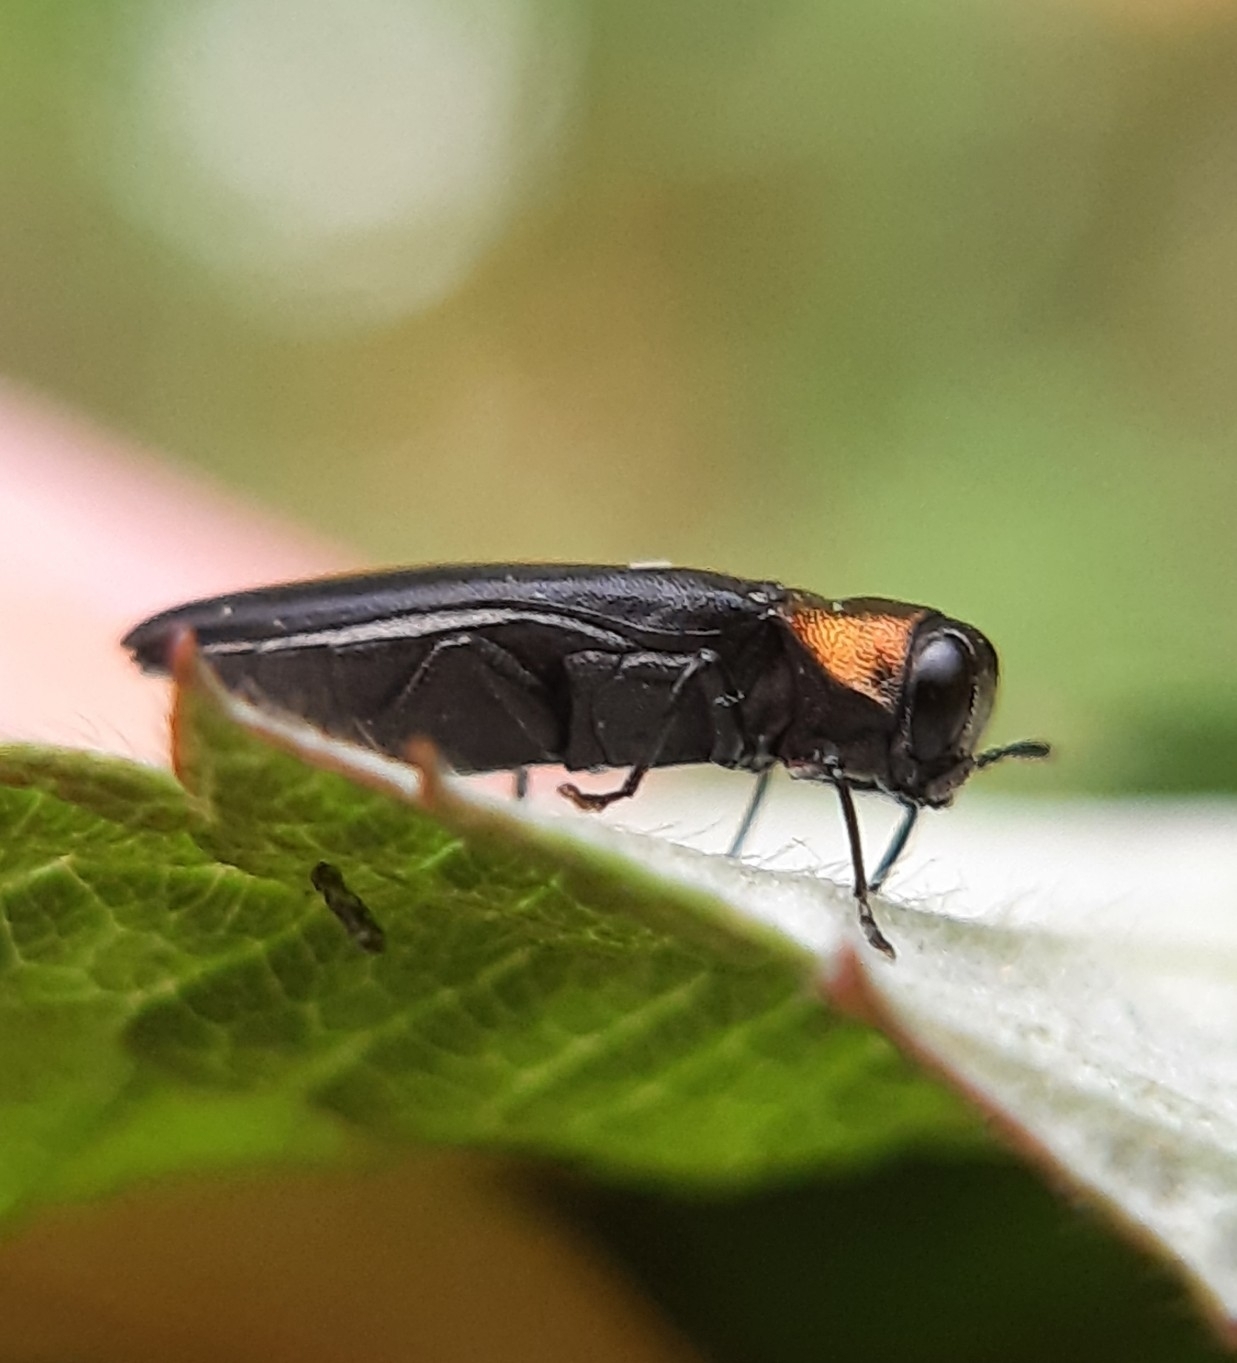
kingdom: Animalia
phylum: Arthropoda
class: Insecta
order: Coleoptera
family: Buprestidae
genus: Agrilus
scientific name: Agrilus ruficollis
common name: Red-necked cane borer beetle
